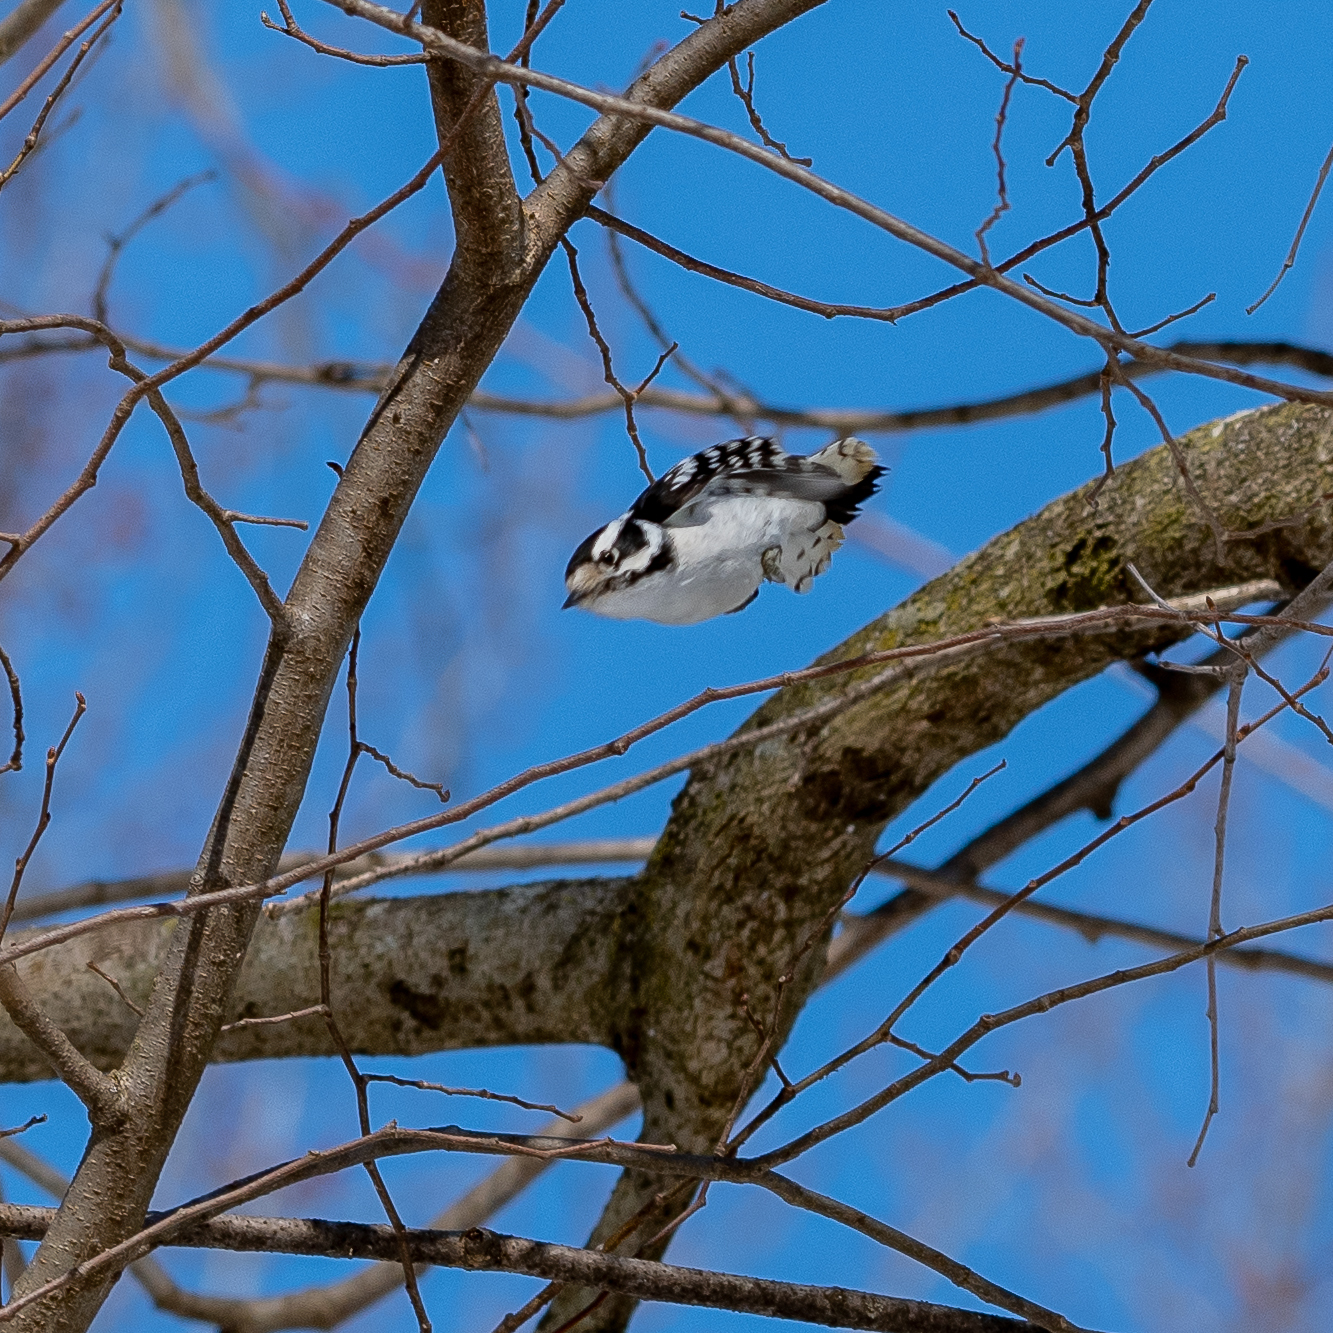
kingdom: Animalia
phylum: Chordata
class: Aves
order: Piciformes
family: Picidae
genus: Dryobates
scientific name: Dryobates pubescens
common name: Downy woodpecker
